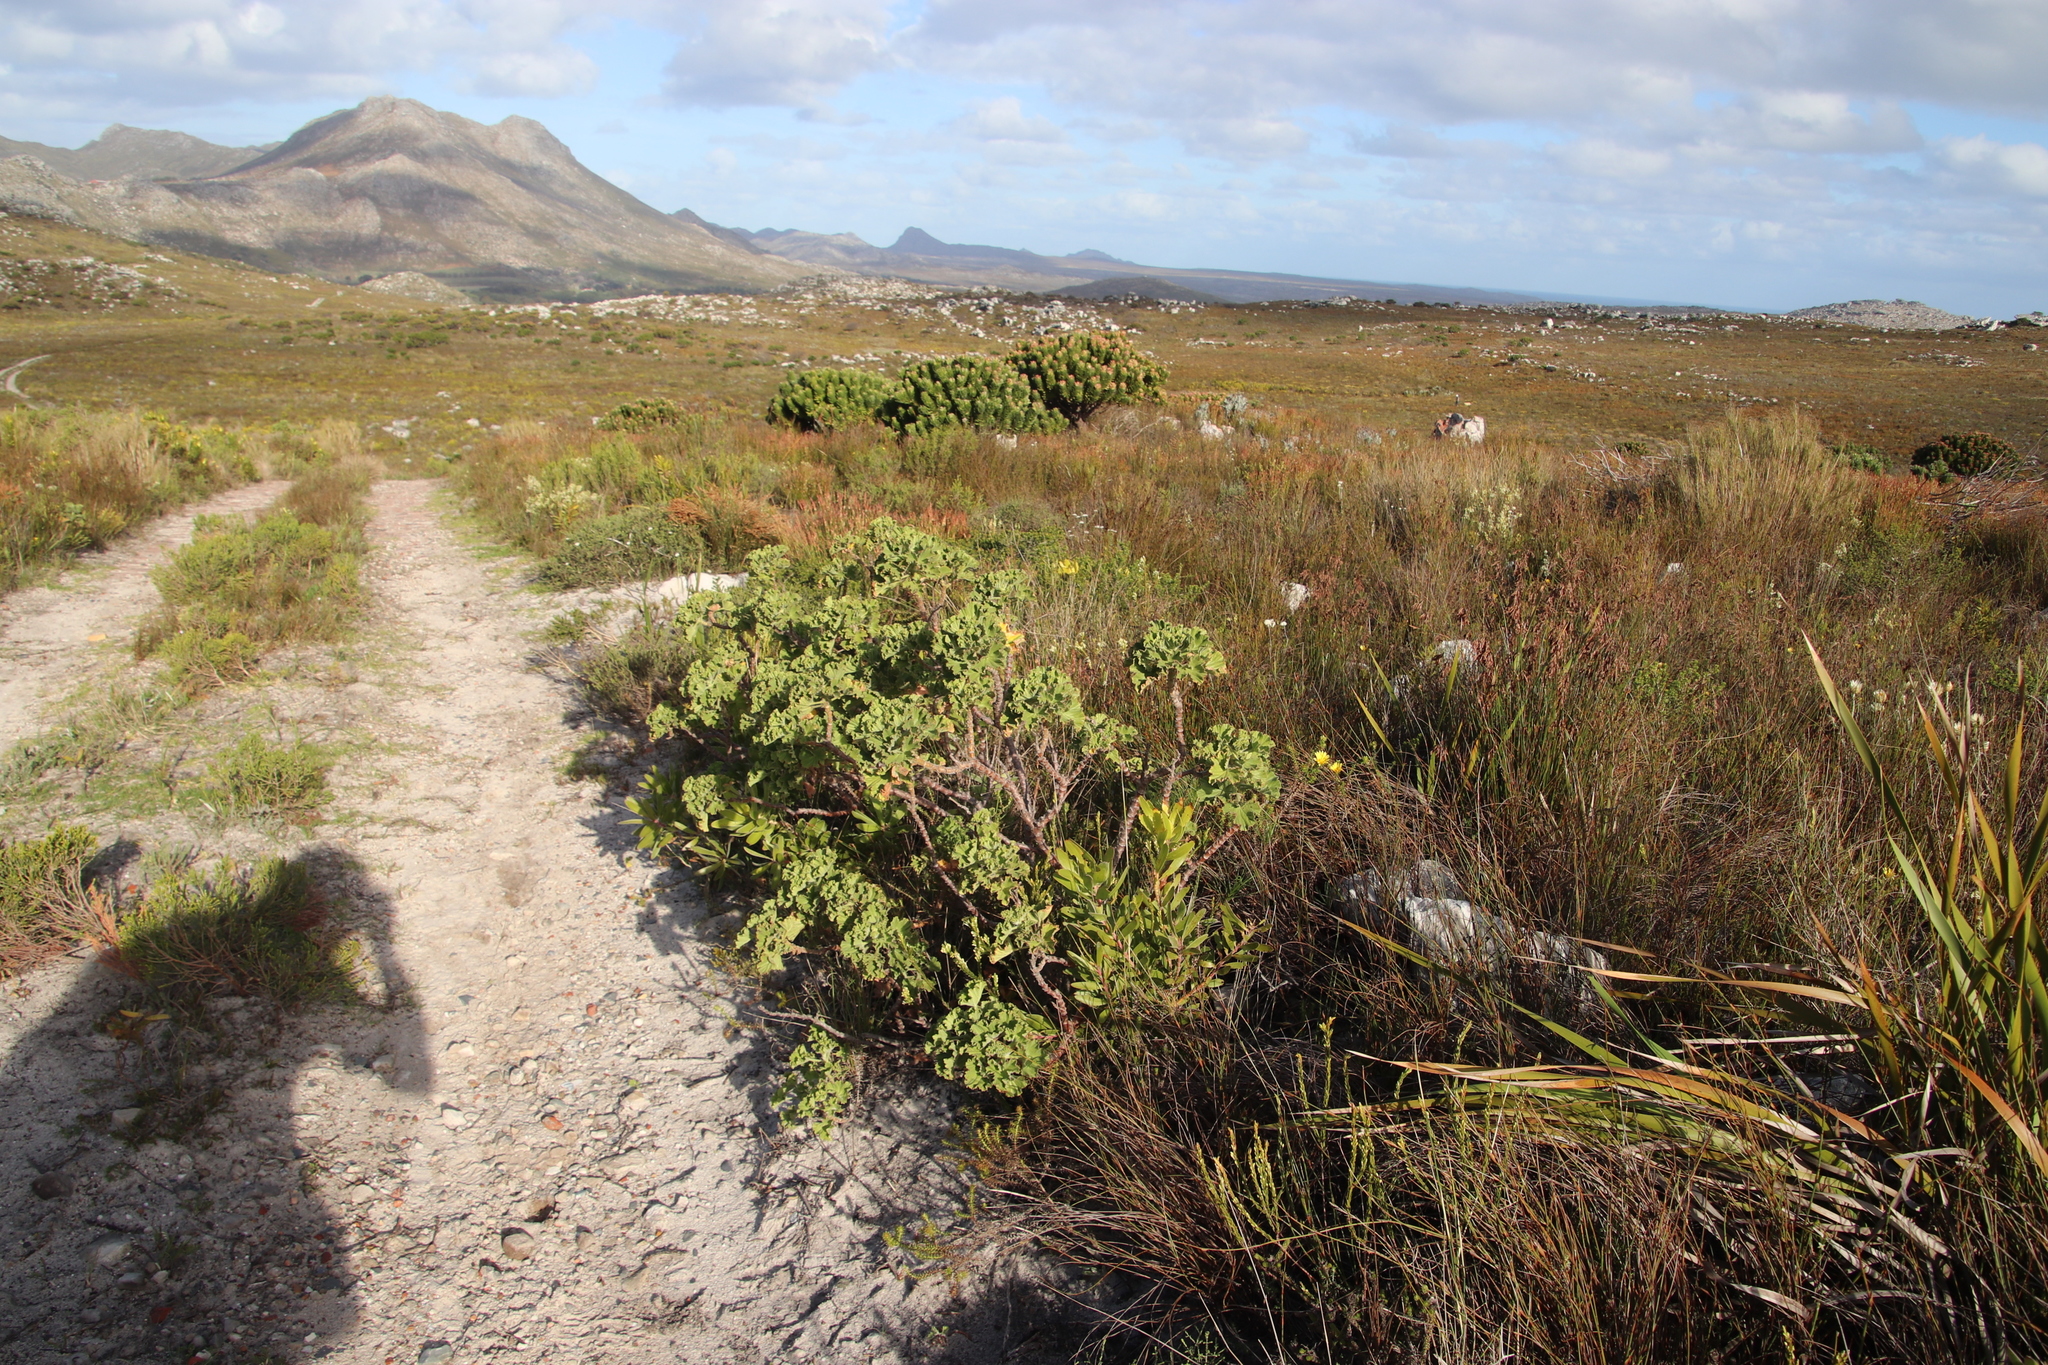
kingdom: Plantae
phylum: Tracheophyta
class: Magnoliopsida
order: Geraniales
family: Geraniaceae
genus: Pelargonium
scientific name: Pelargonium cucullatum
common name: Tree pelargonium
